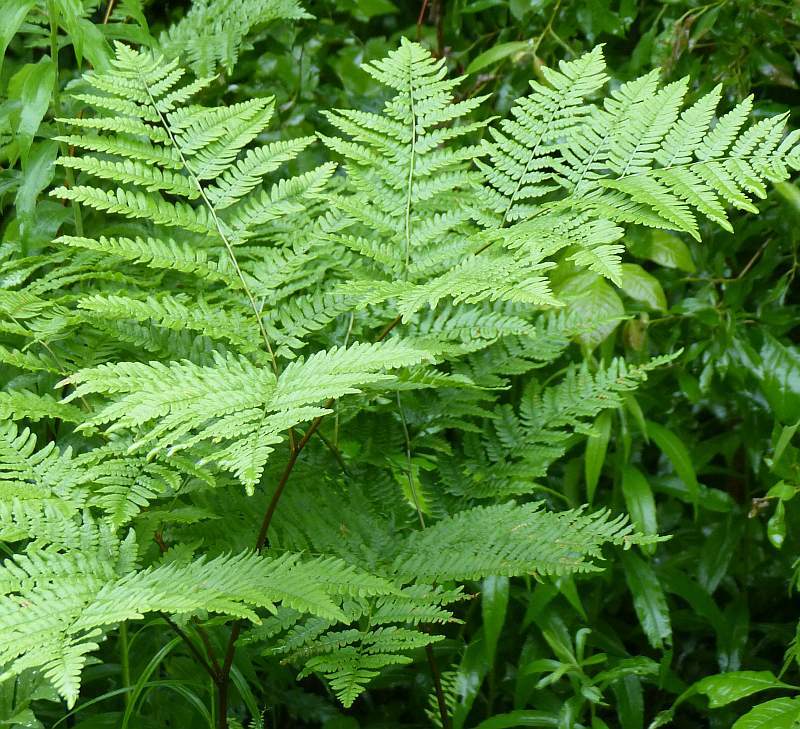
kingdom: Plantae
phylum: Tracheophyta
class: Polypodiopsida
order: Polypodiales
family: Dennstaedtiaceae
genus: Pteridium
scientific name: Pteridium aquilinum
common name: Bracken
